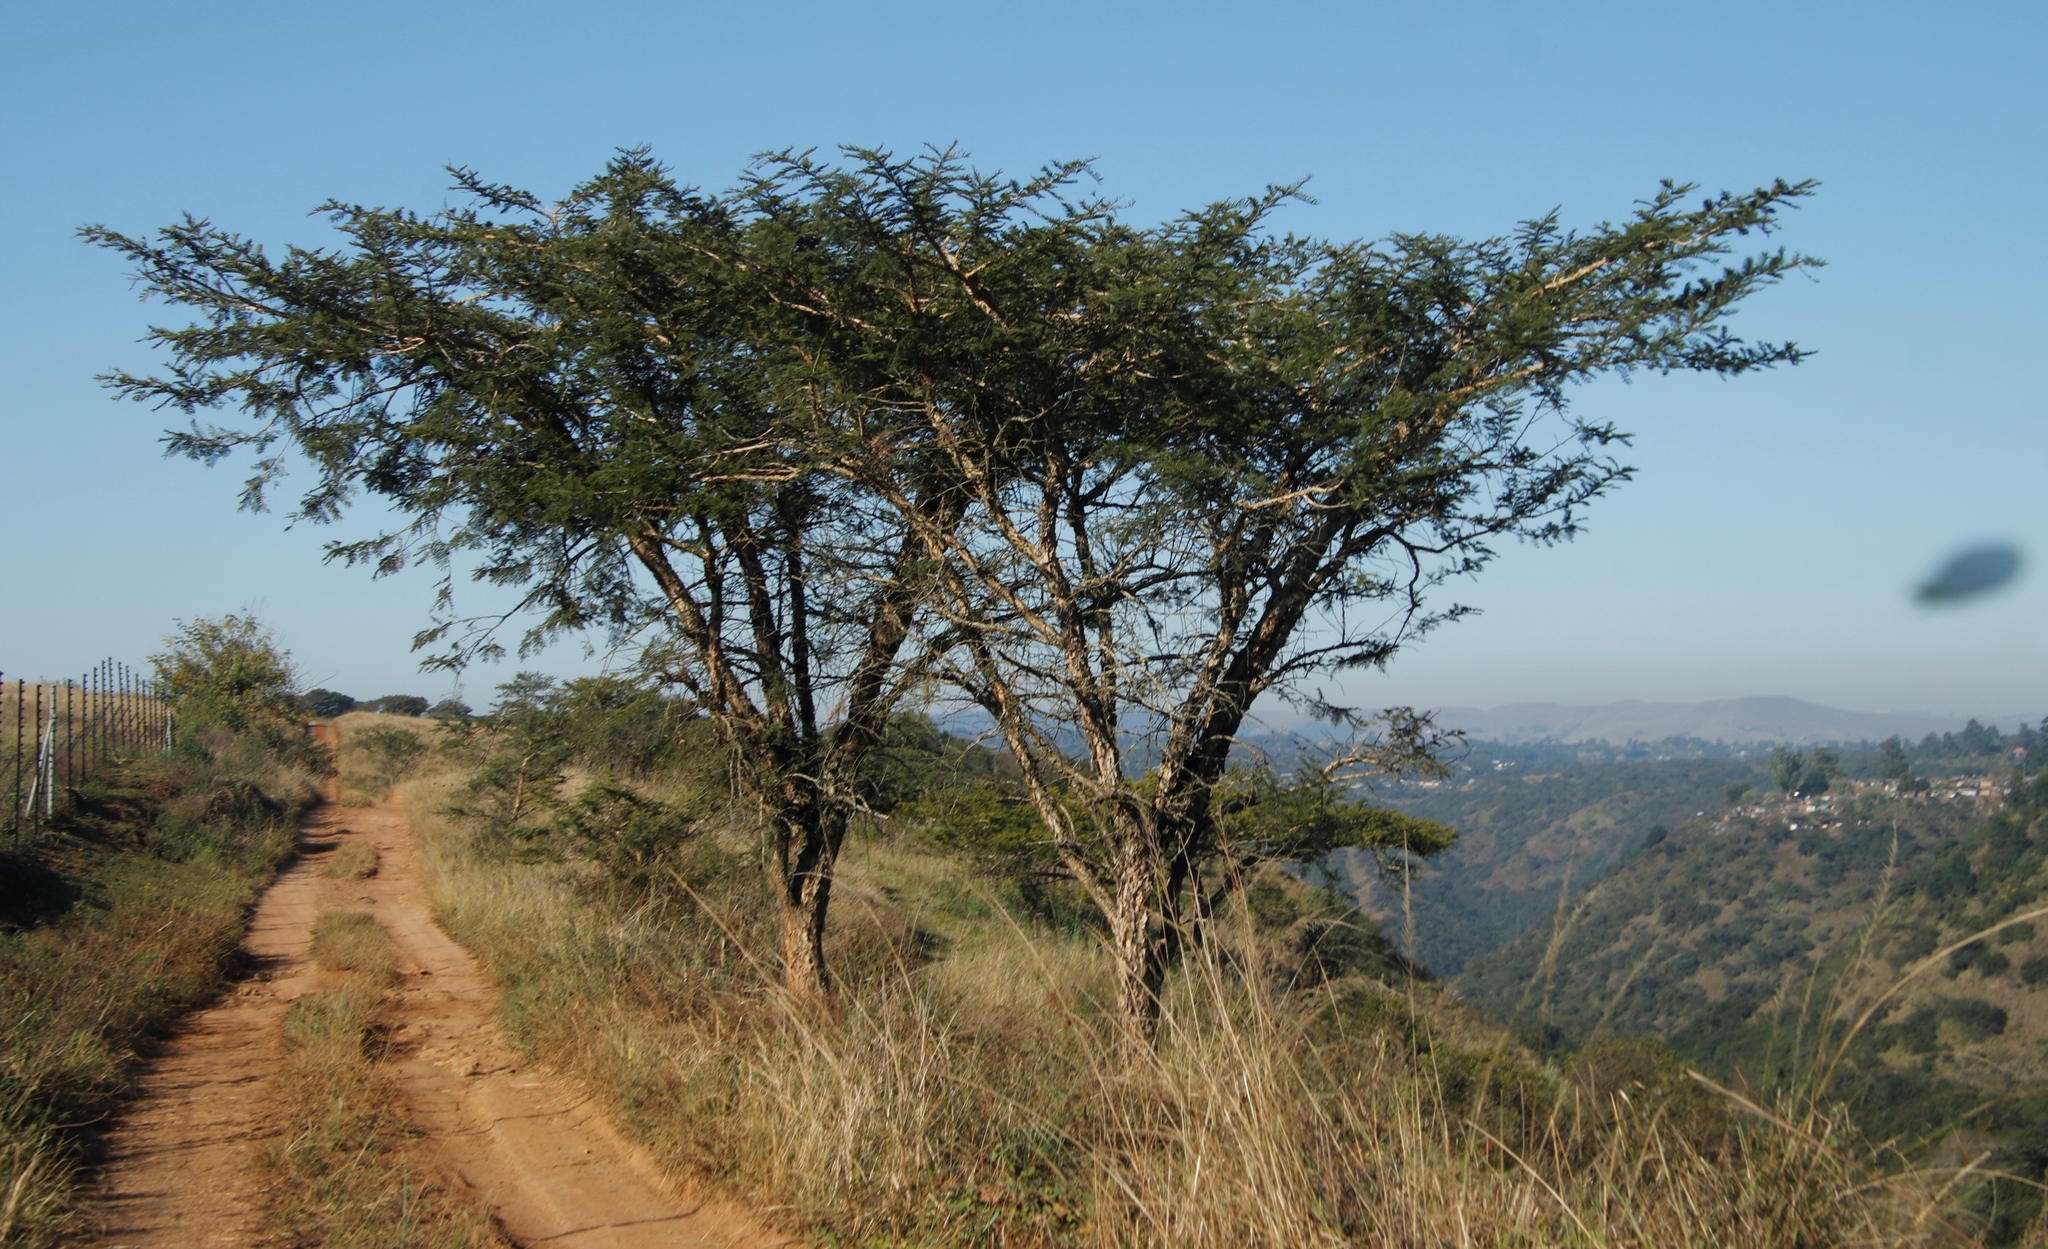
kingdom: Plantae
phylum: Tracheophyta
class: Magnoliopsida
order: Fabales
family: Fabaceae
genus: Vachellia
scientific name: Vachellia sieberiana
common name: Flat-topped thorn
